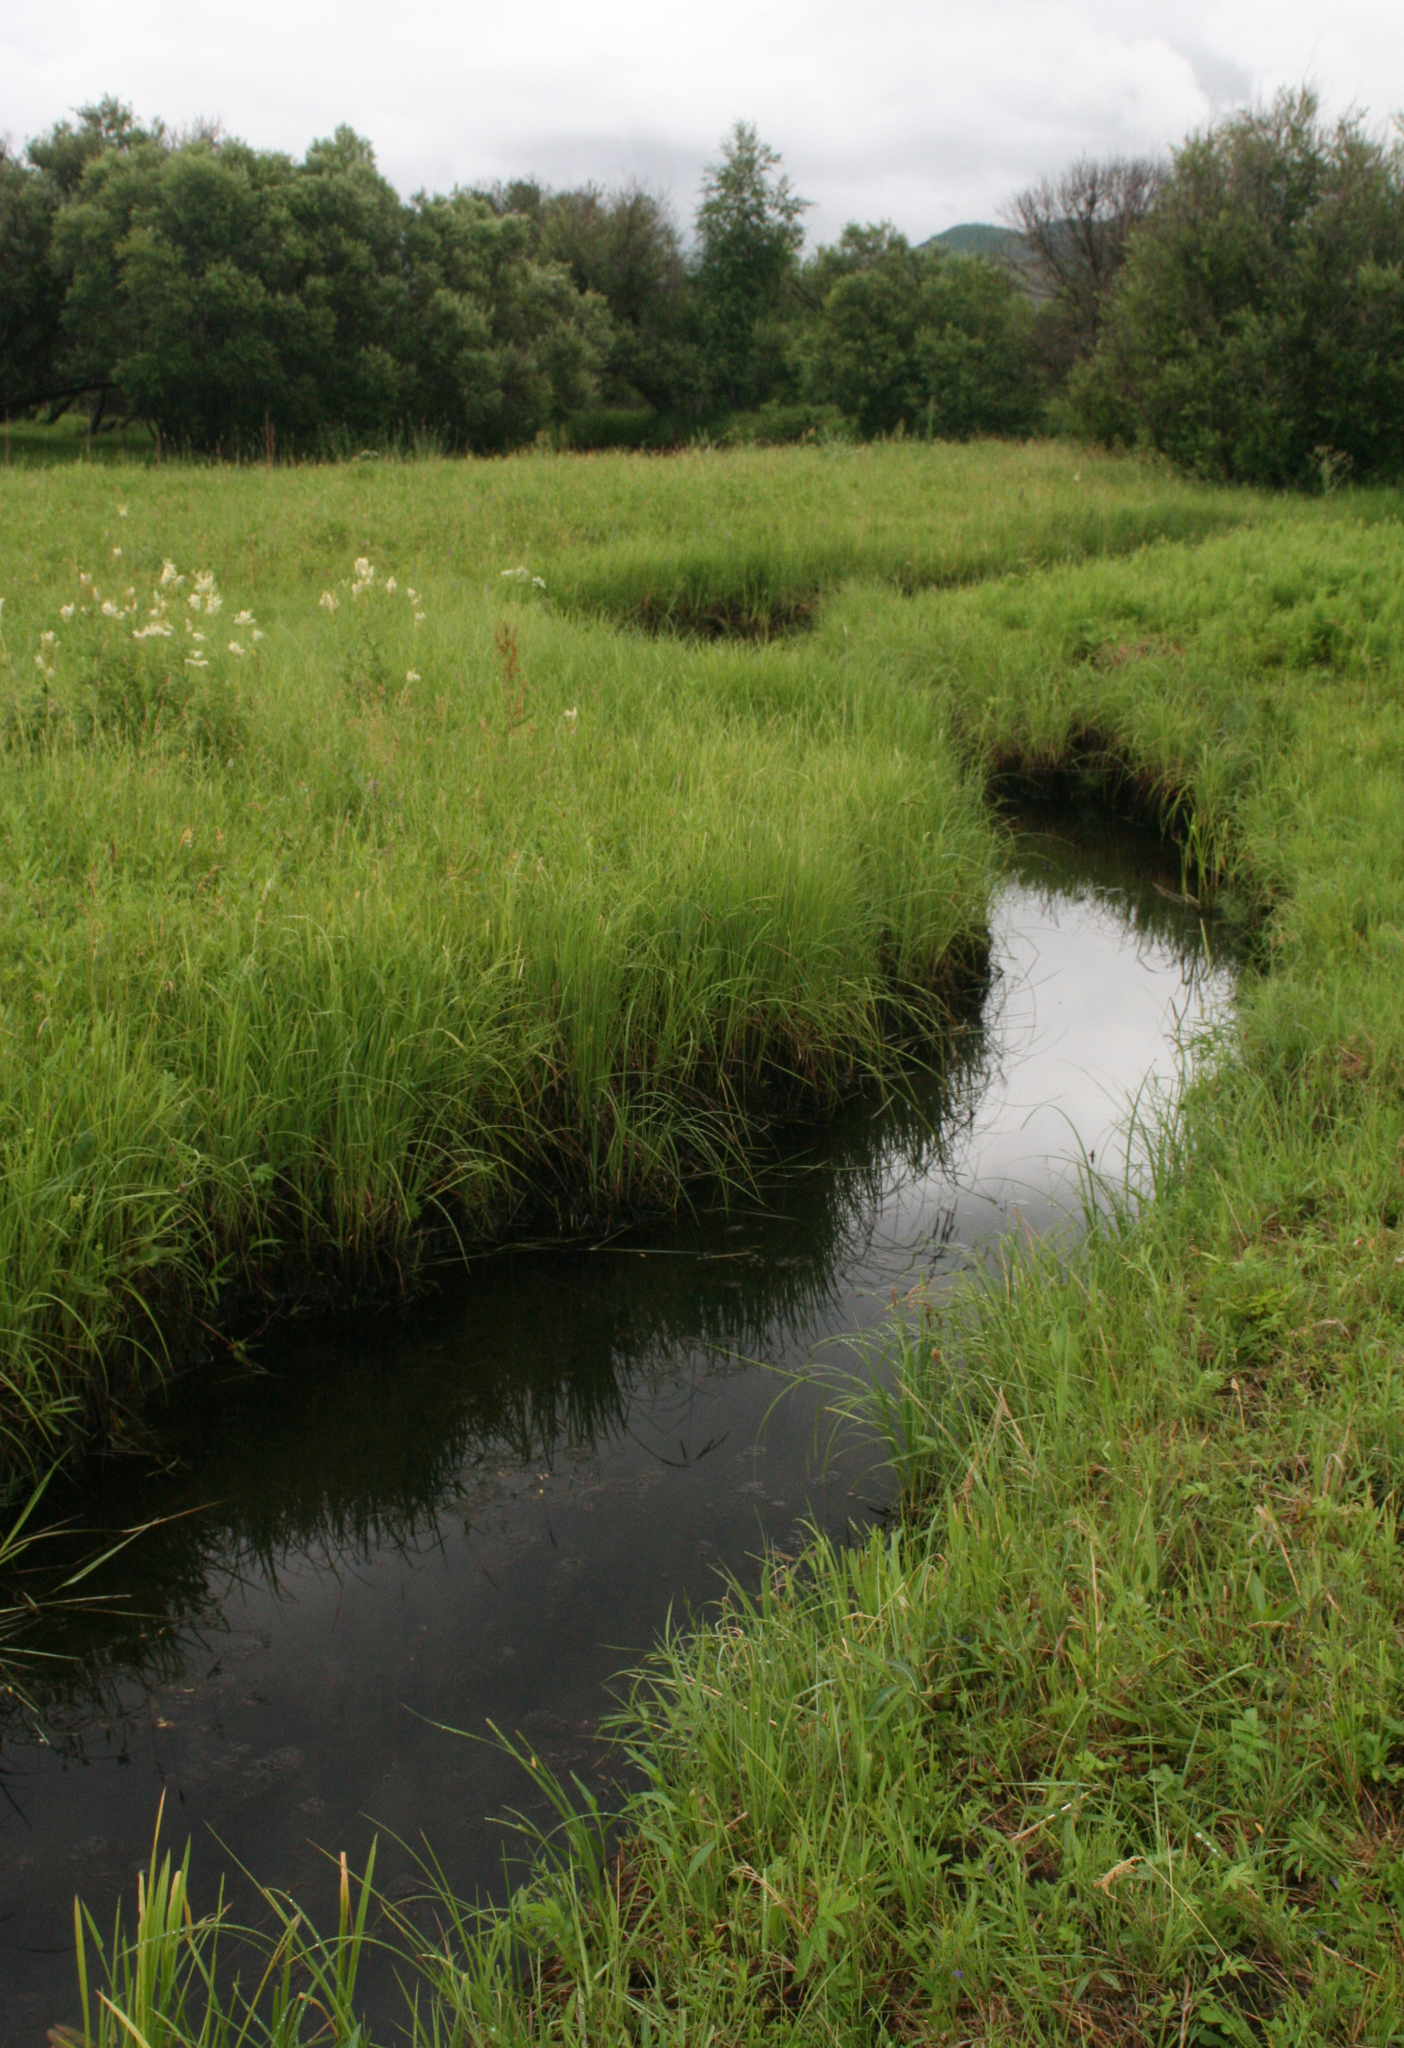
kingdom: Plantae
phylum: Tracheophyta
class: Magnoliopsida
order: Rosales
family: Rosaceae
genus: Filipendula
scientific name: Filipendula ulmaria
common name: Meadowsweet
